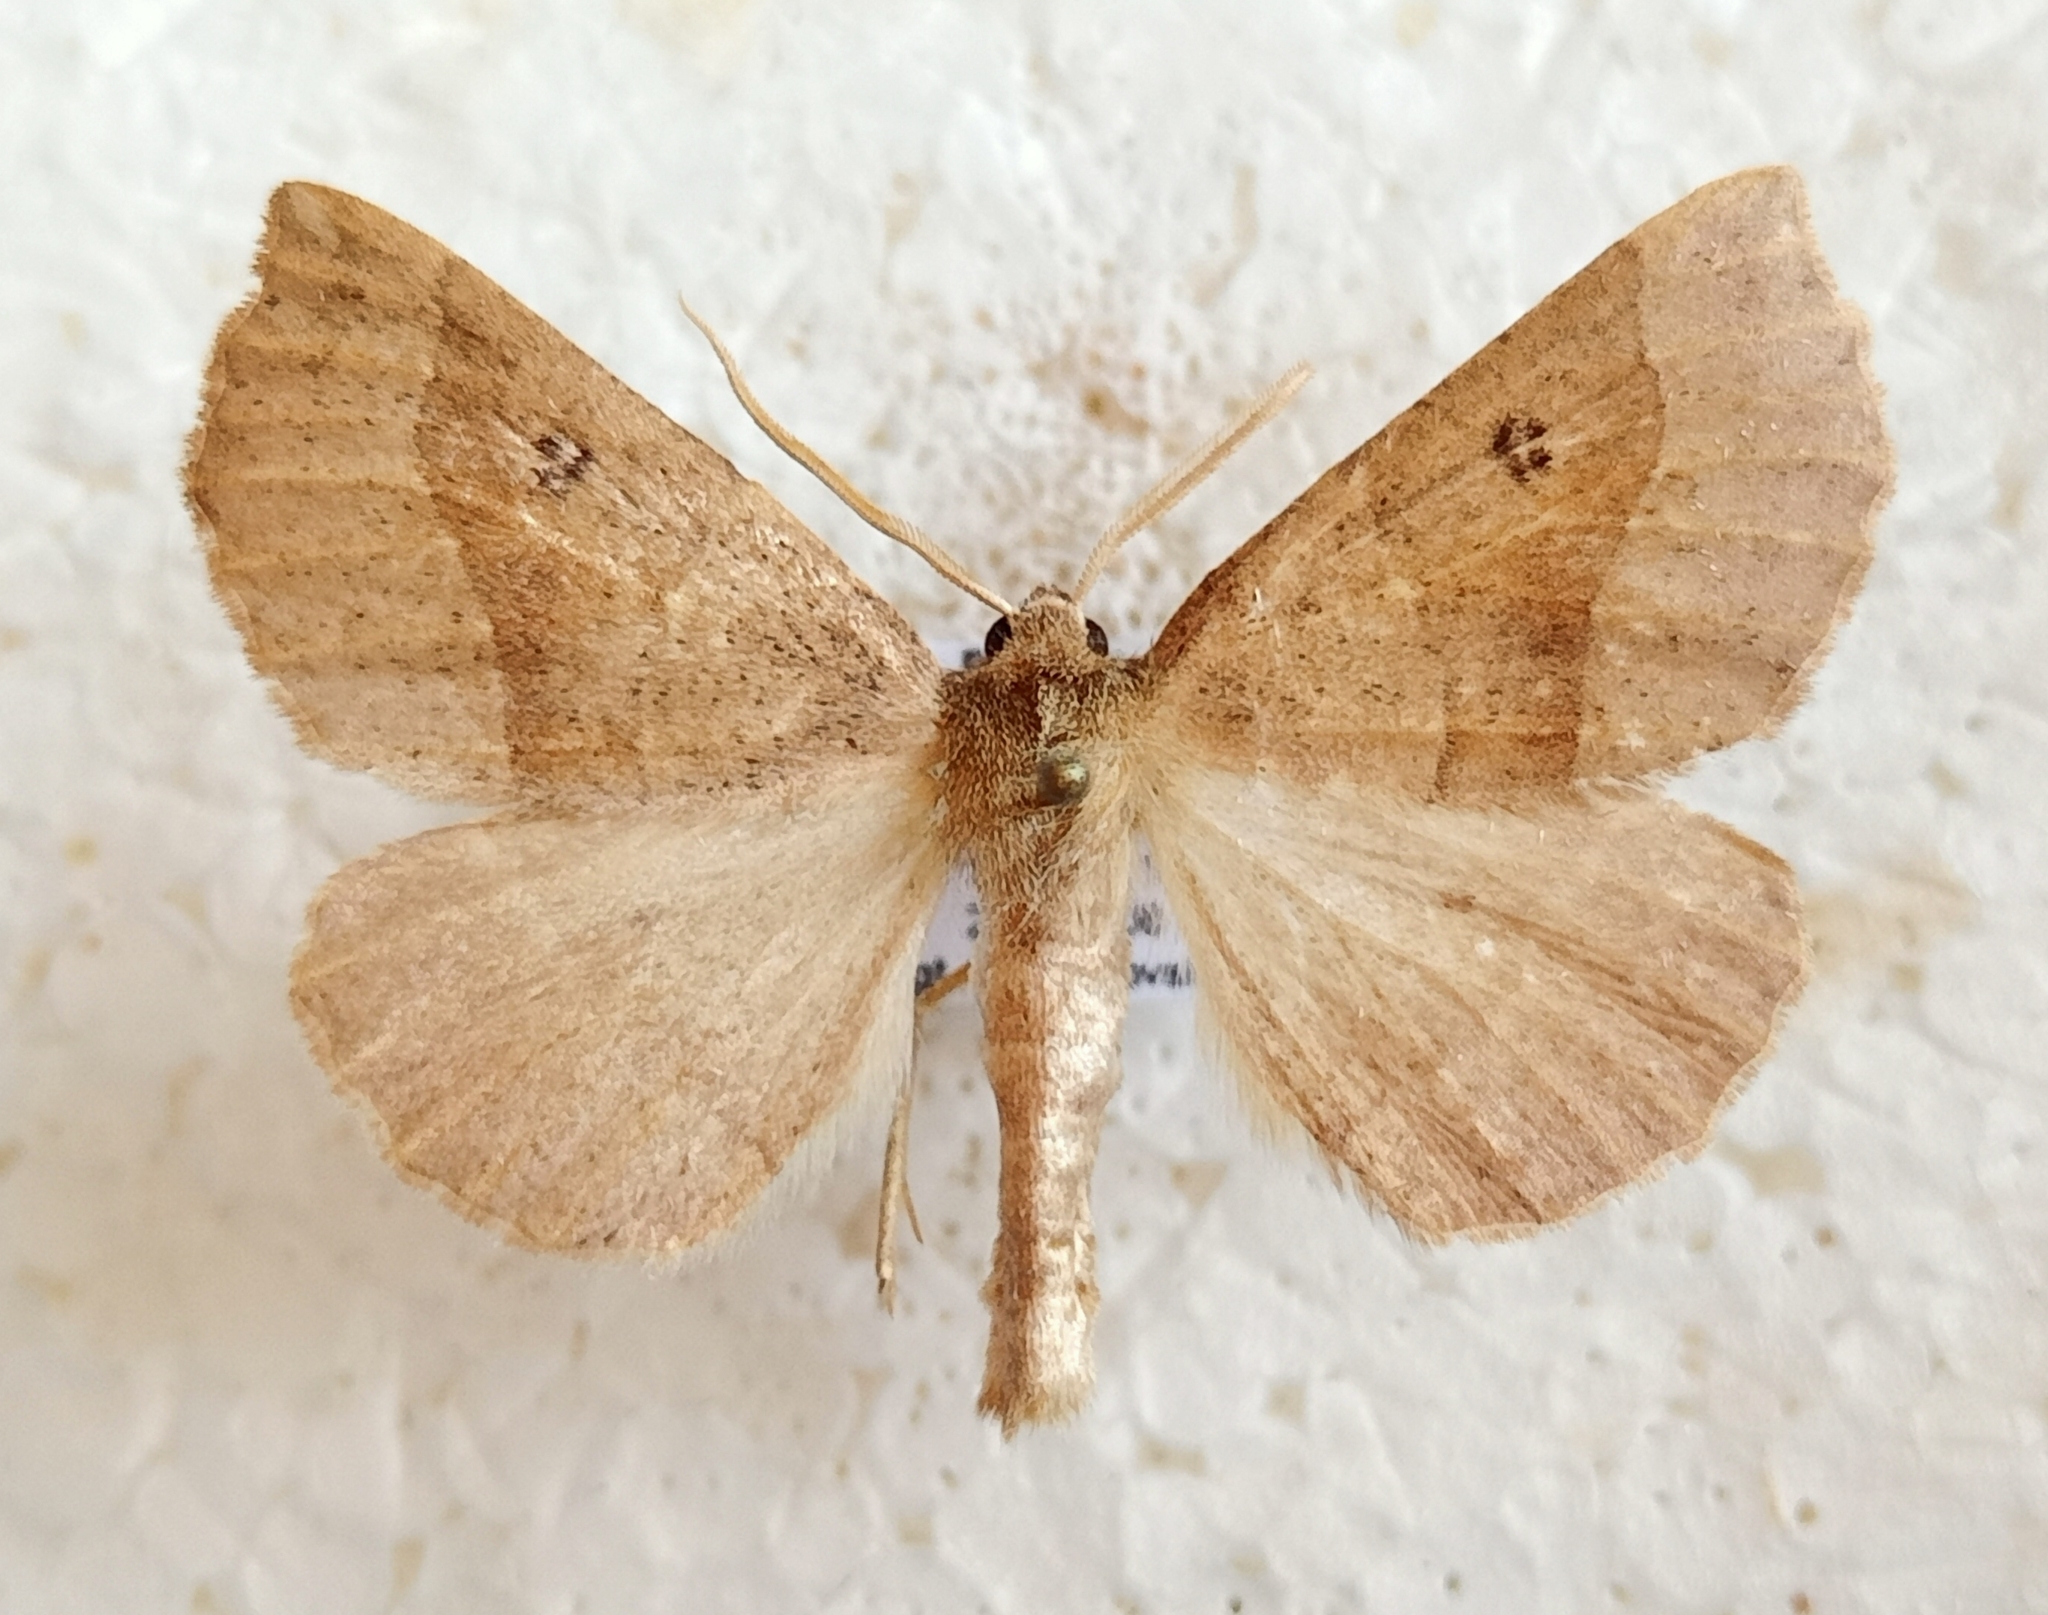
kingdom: Animalia
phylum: Arthropoda
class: Insecta
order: Lepidoptera
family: Geometridae
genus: Crocallis
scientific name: Crocallis dardoinaria
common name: Dusky scalloped oak
